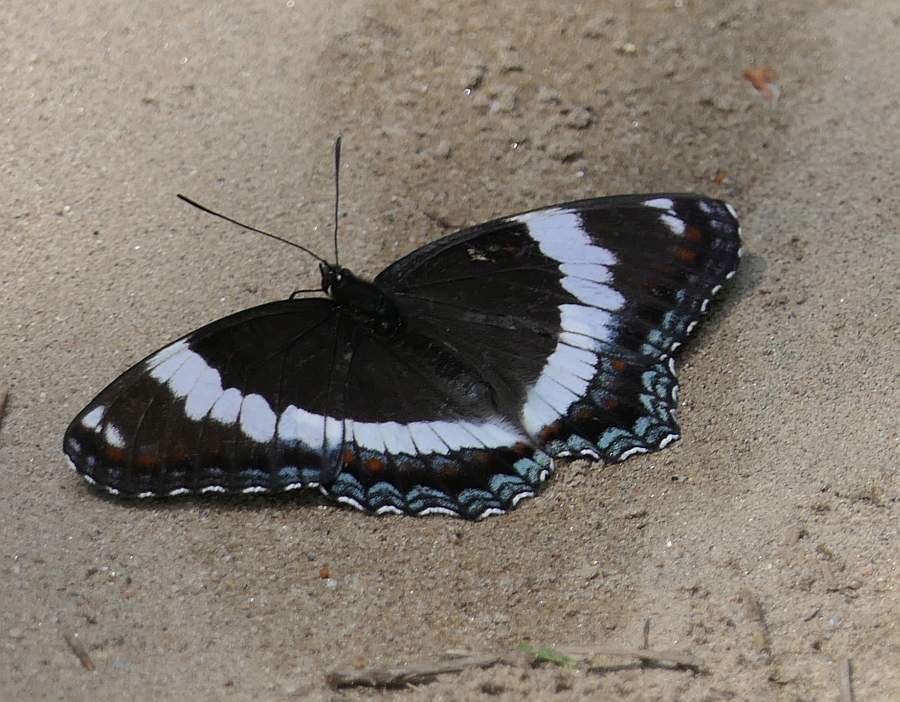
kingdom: Animalia
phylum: Arthropoda
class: Insecta
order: Lepidoptera
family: Nymphalidae
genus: Limenitis
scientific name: Limenitis arthemis
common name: Red-spotted admiral
